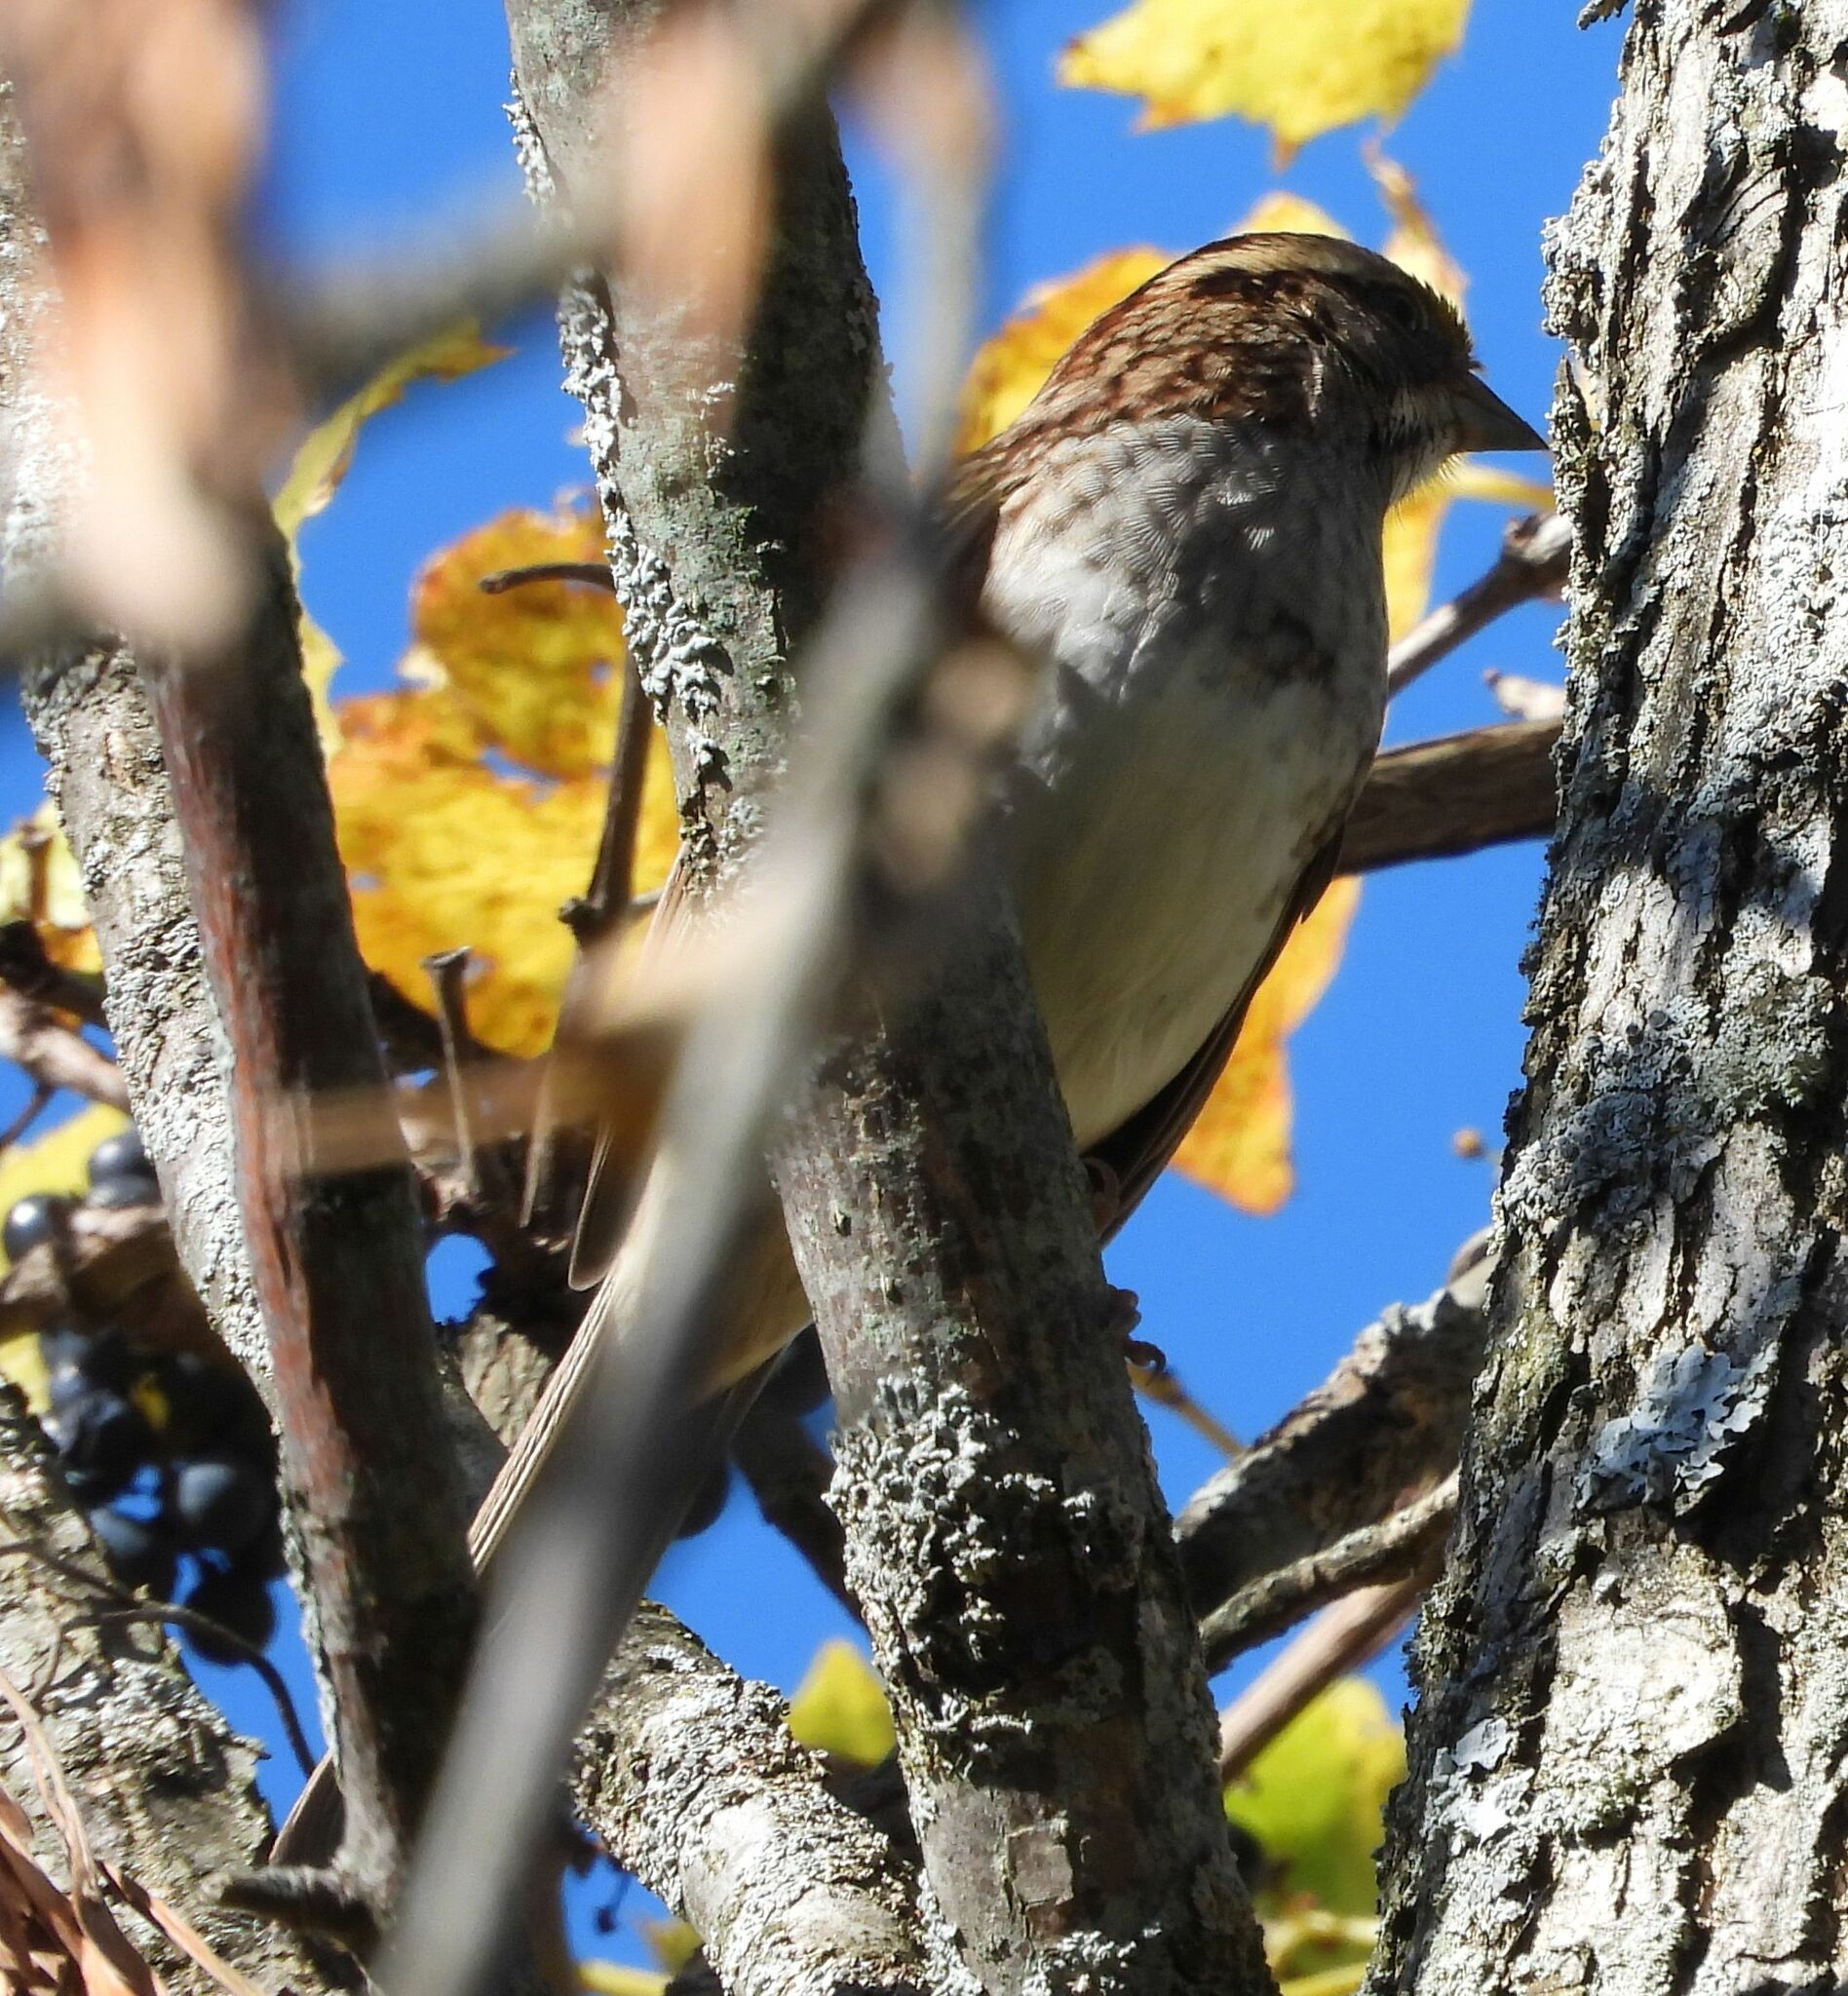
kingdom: Animalia
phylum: Chordata
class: Aves
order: Passeriformes
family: Passerellidae
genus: Zonotrichia
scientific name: Zonotrichia albicollis
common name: White-throated sparrow
